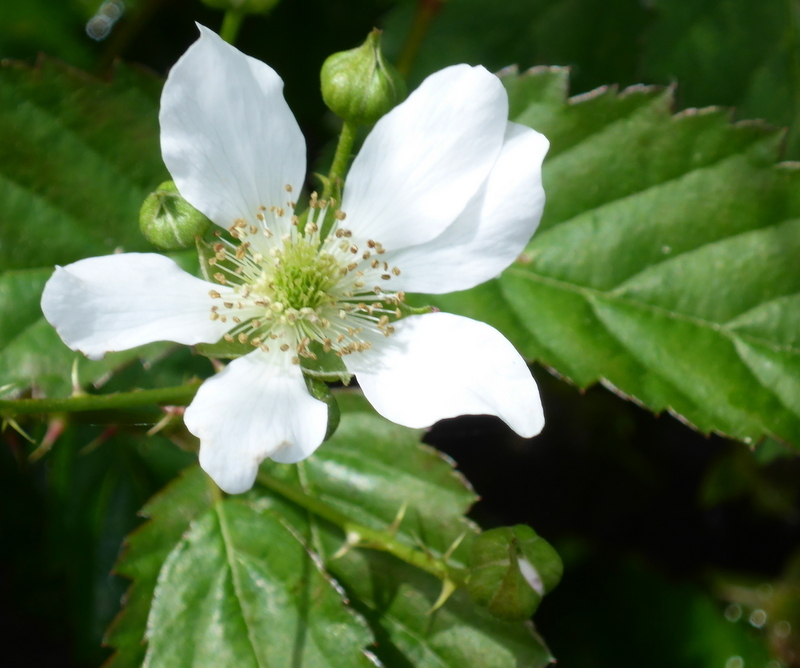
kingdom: Plantae
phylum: Tracheophyta
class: Magnoliopsida
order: Rosales
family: Rosaceae
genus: Rubus
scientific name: Rubus trivialis
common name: Southern dewberry
